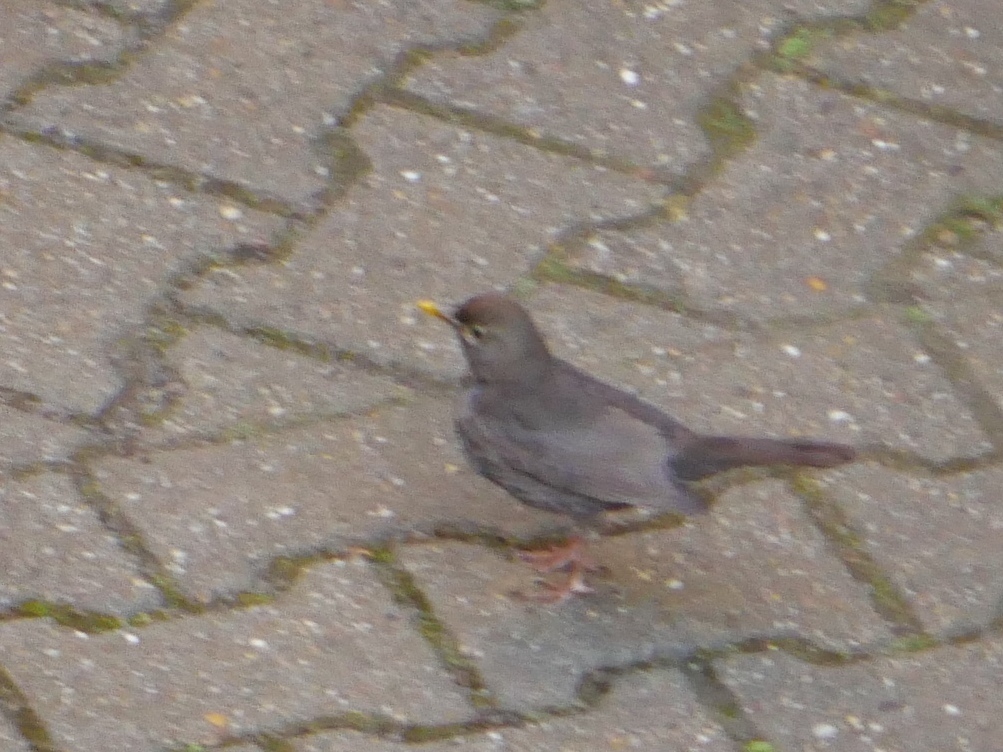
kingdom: Animalia
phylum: Chordata
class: Aves
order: Passeriformes
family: Turdidae
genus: Turdus
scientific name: Turdus merula
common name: Common blackbird
